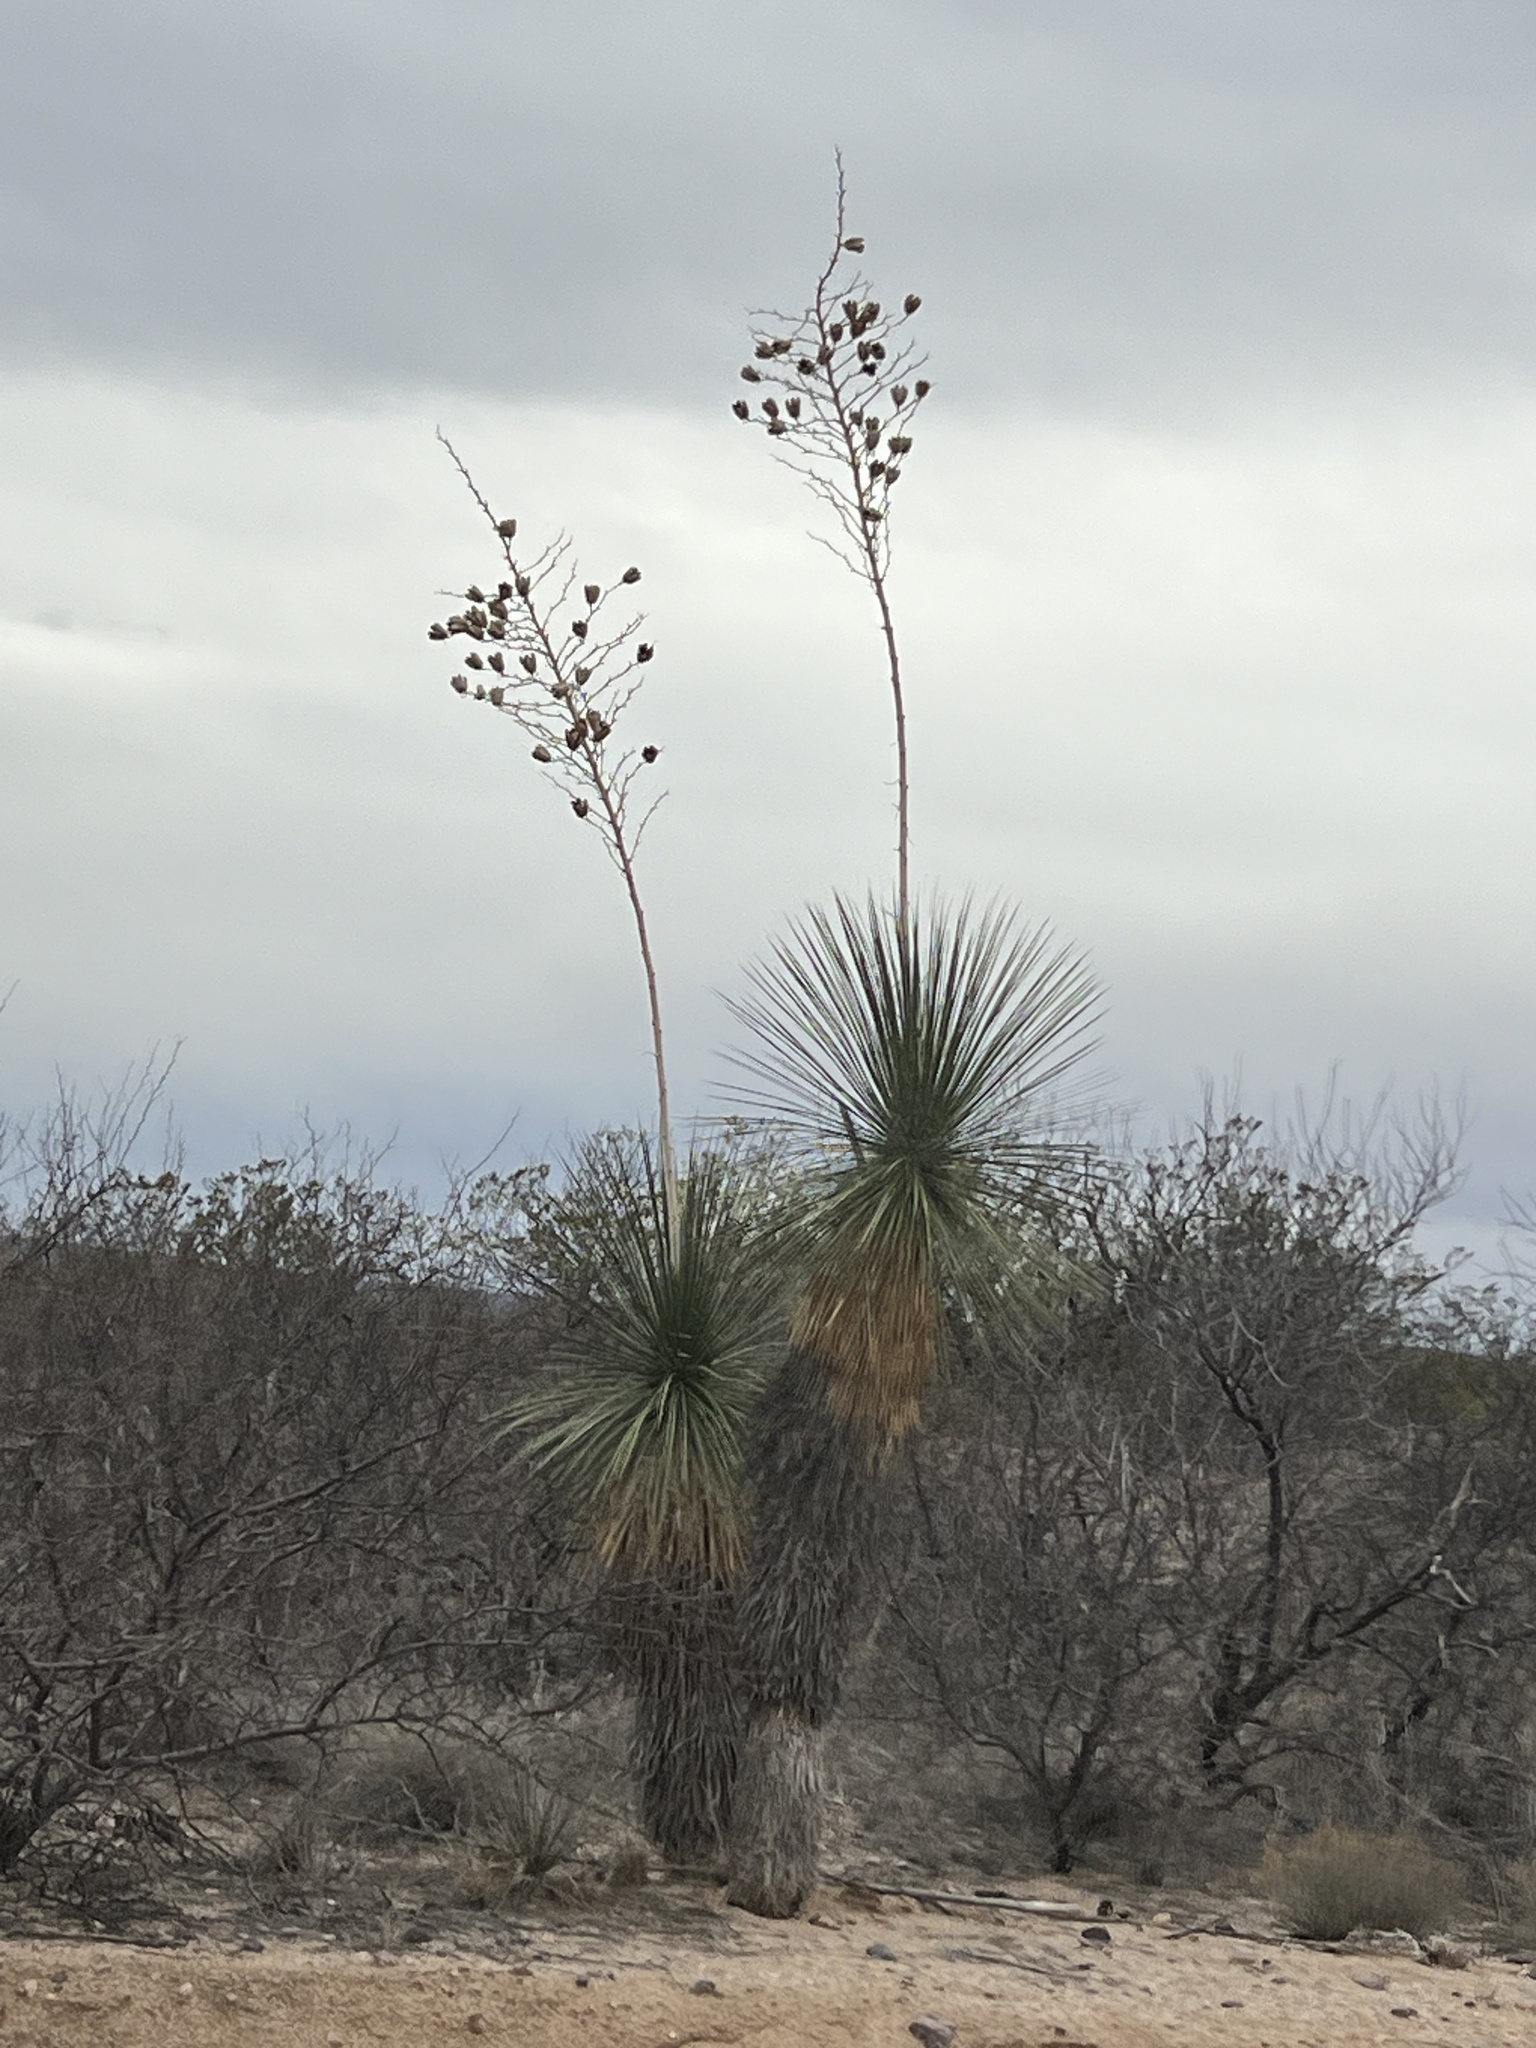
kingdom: Plantae
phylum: Tracheophyta
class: Liliopsida
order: Asparagales
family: Asparagaceae
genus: Yucca
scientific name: Yucca elata
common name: Palmella
